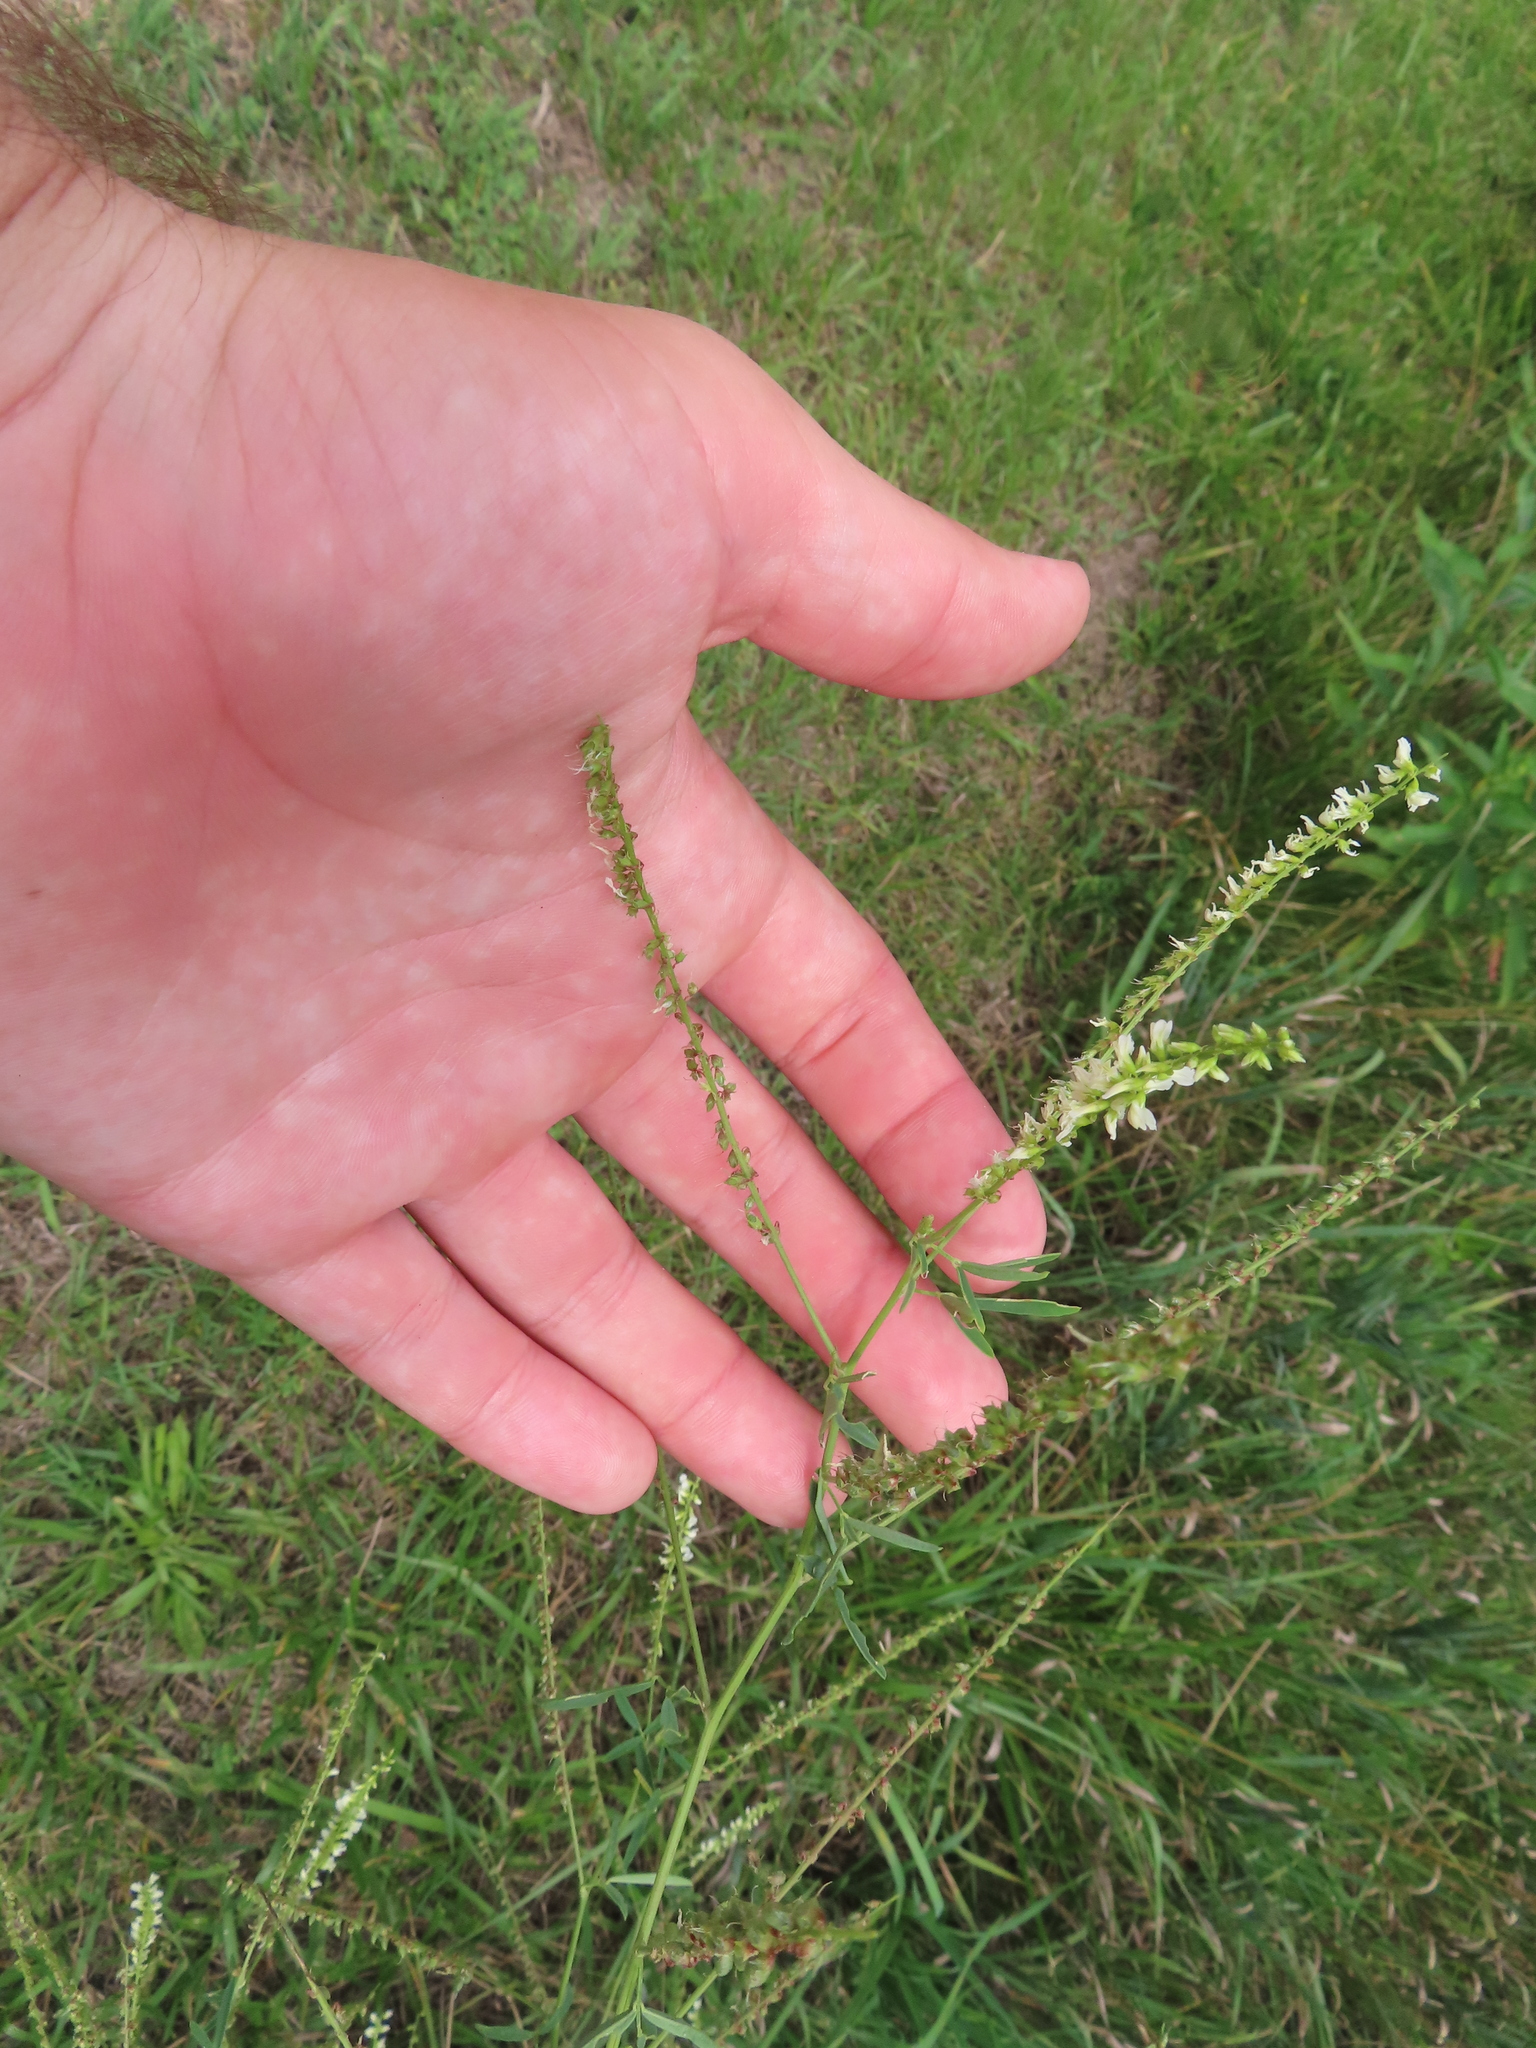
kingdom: Plantae
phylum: Tracheophyta
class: Magnoliopsida
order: Fabales
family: Fabaceae
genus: Melilotus
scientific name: Melilotus albus
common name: White melilot
